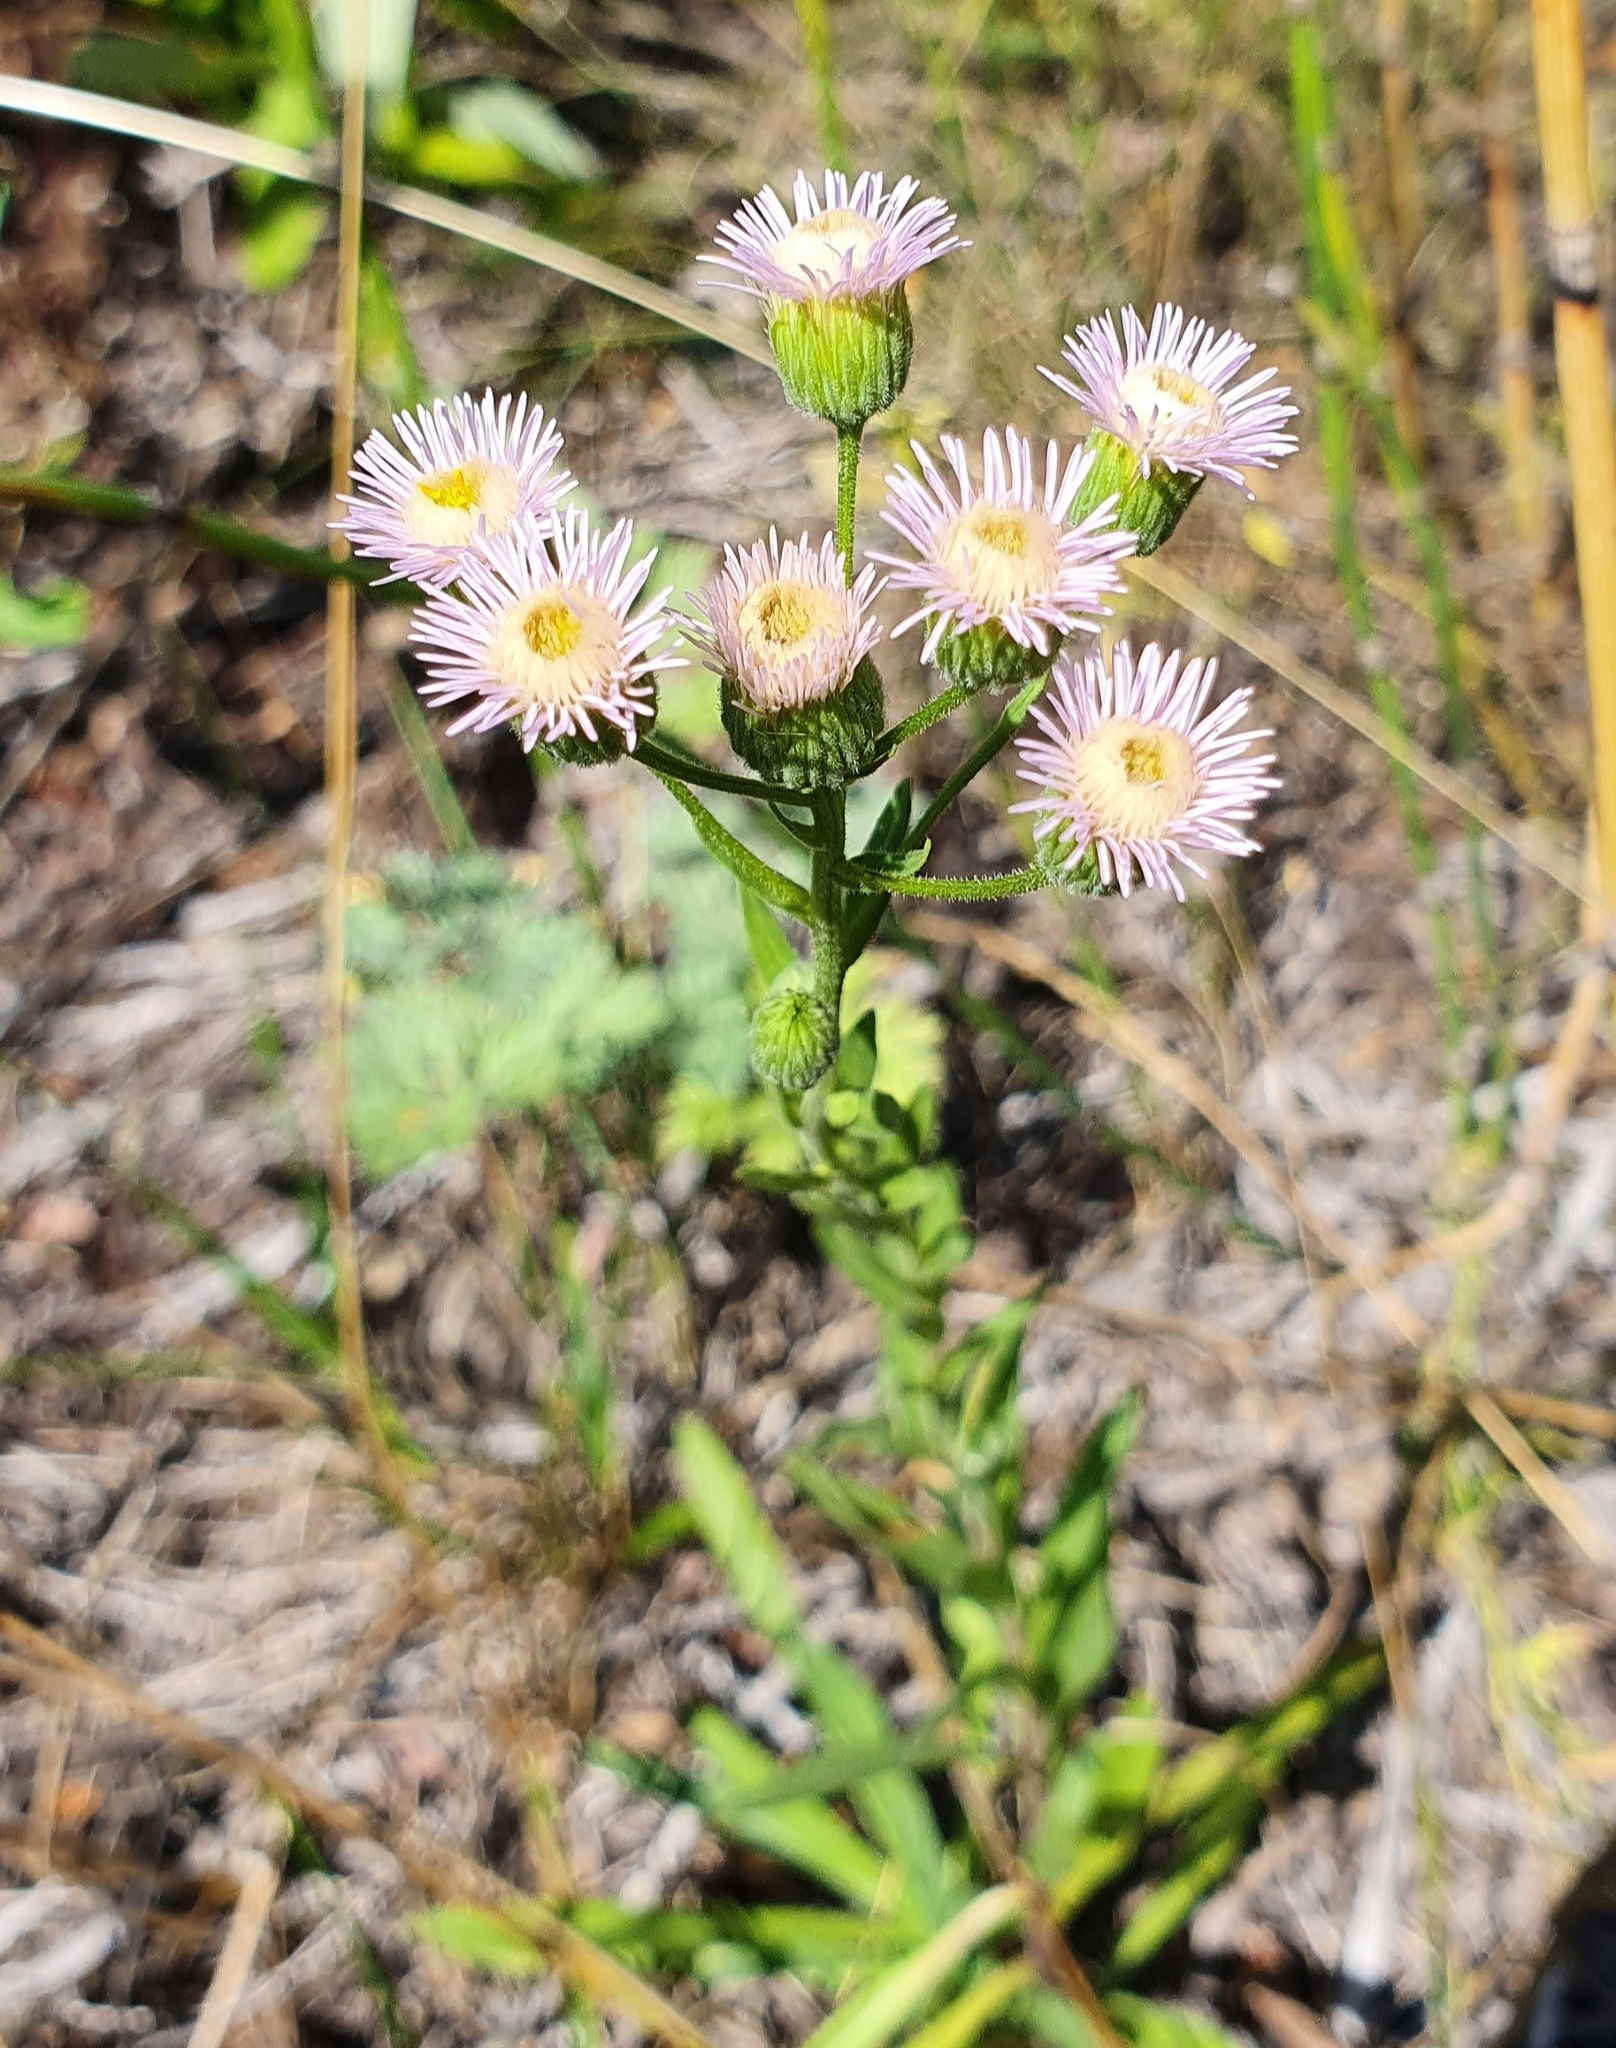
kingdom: Plantae
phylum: Tracheophyta
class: Magnoliopsida
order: Asterales
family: Asteraceae
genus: Erigeron
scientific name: Erigeron podolicus
